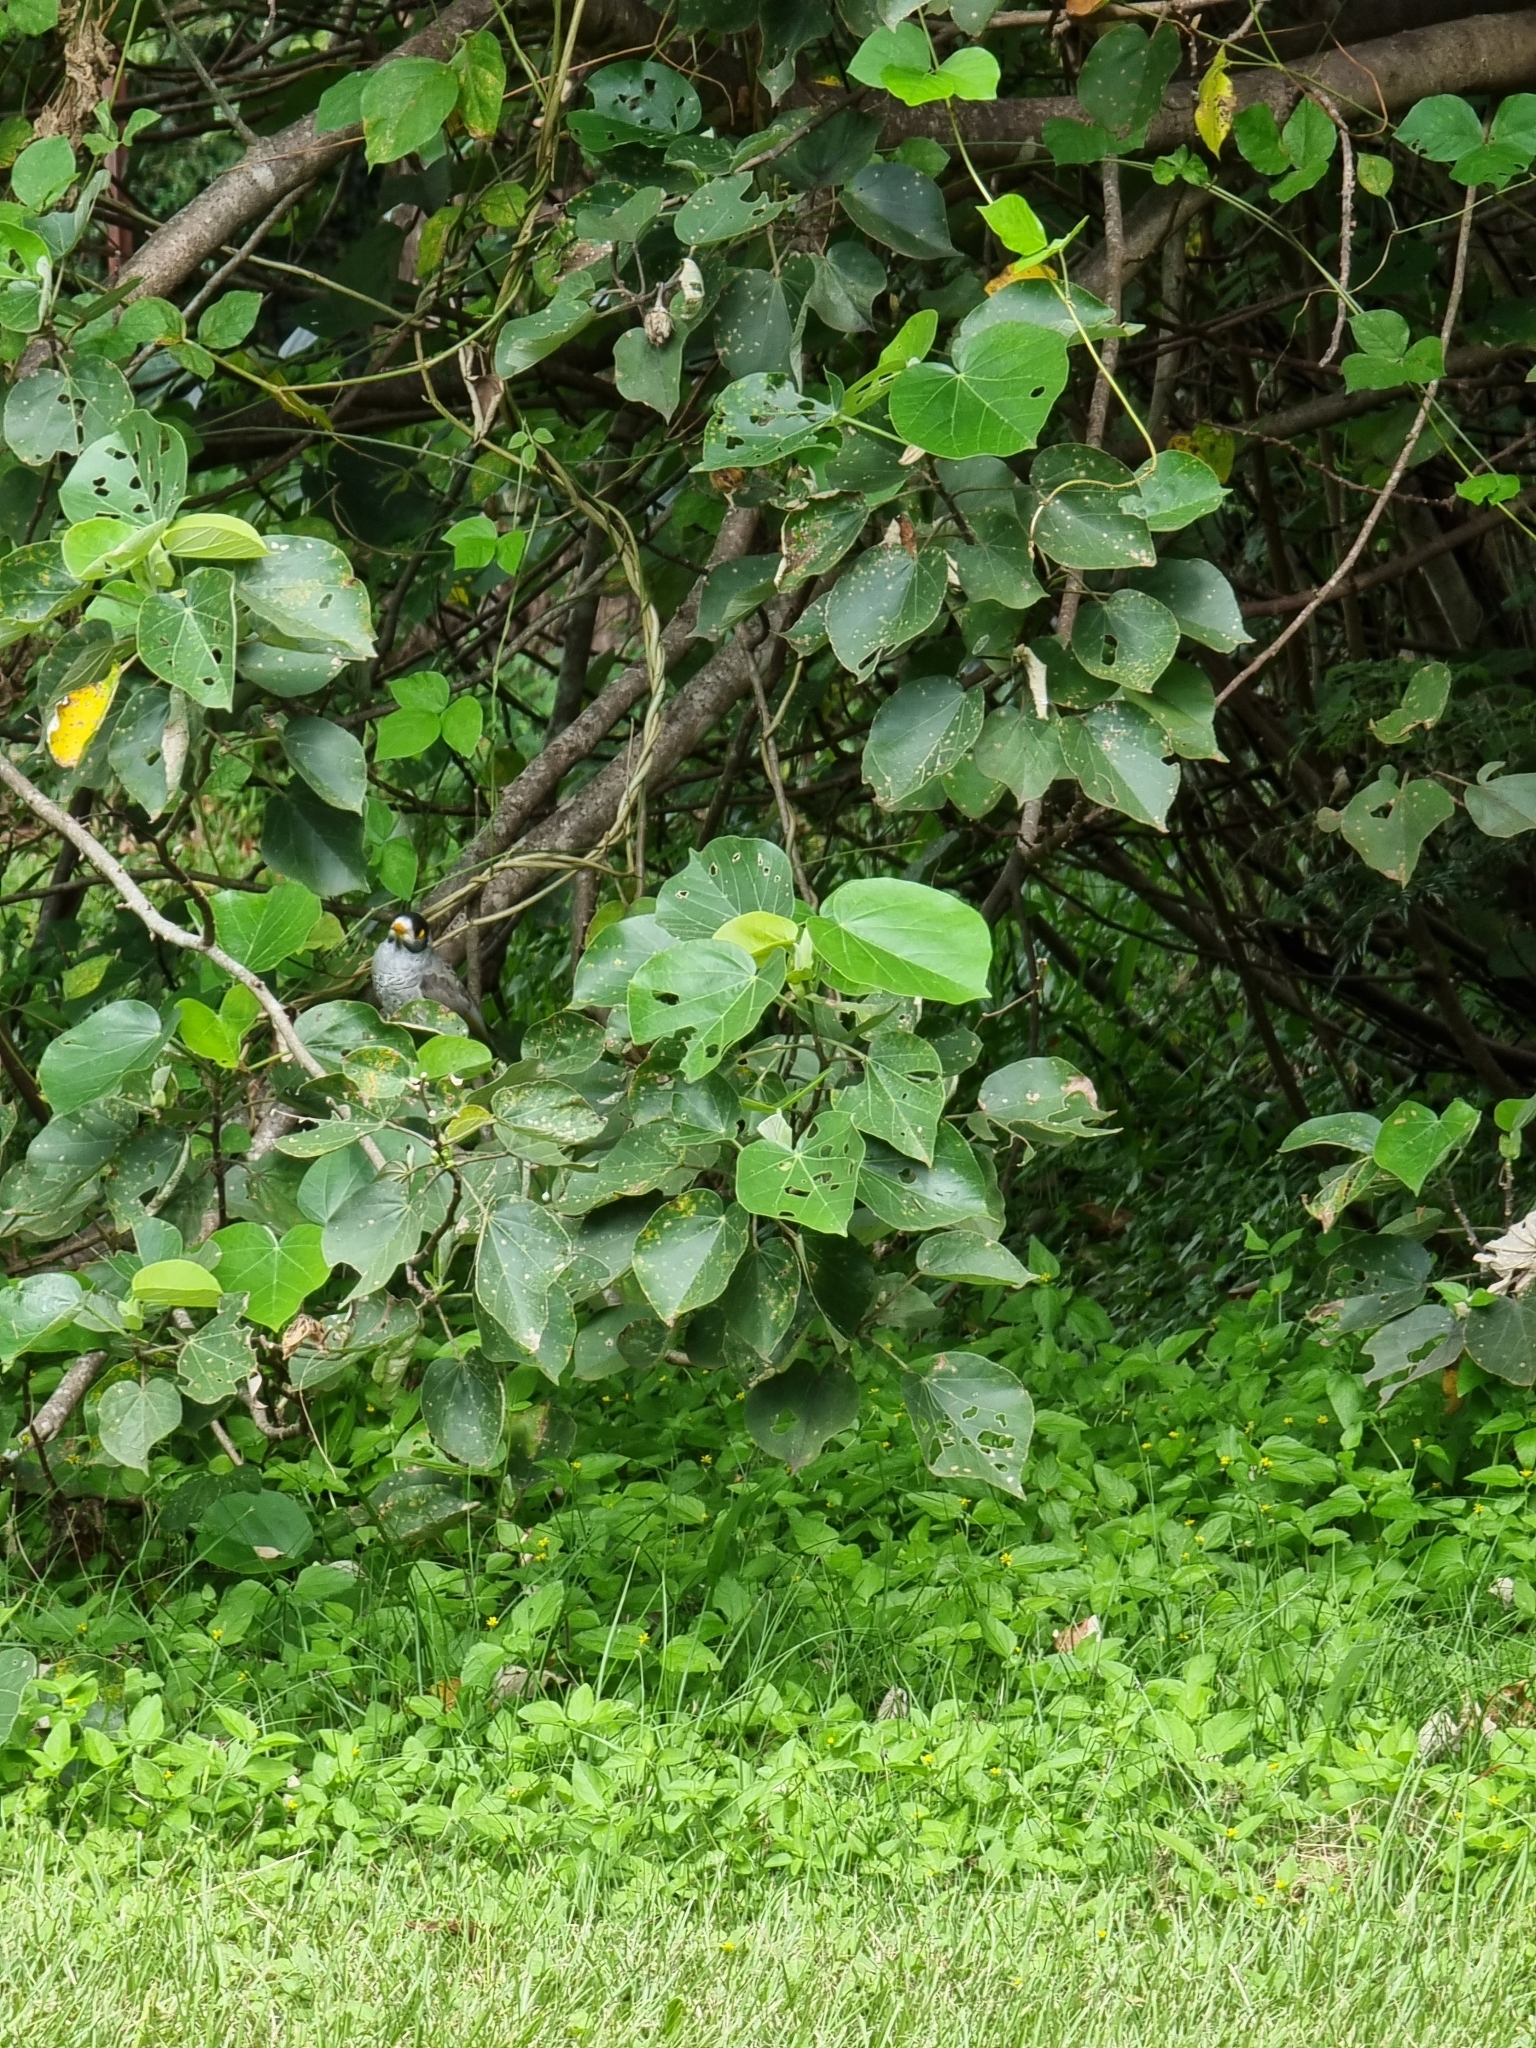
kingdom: Animalia
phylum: Chordata
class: Aves
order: Passeriformes
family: Meliphagidae
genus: Manorina
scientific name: Manorina melanocephala
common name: Noisy miner
